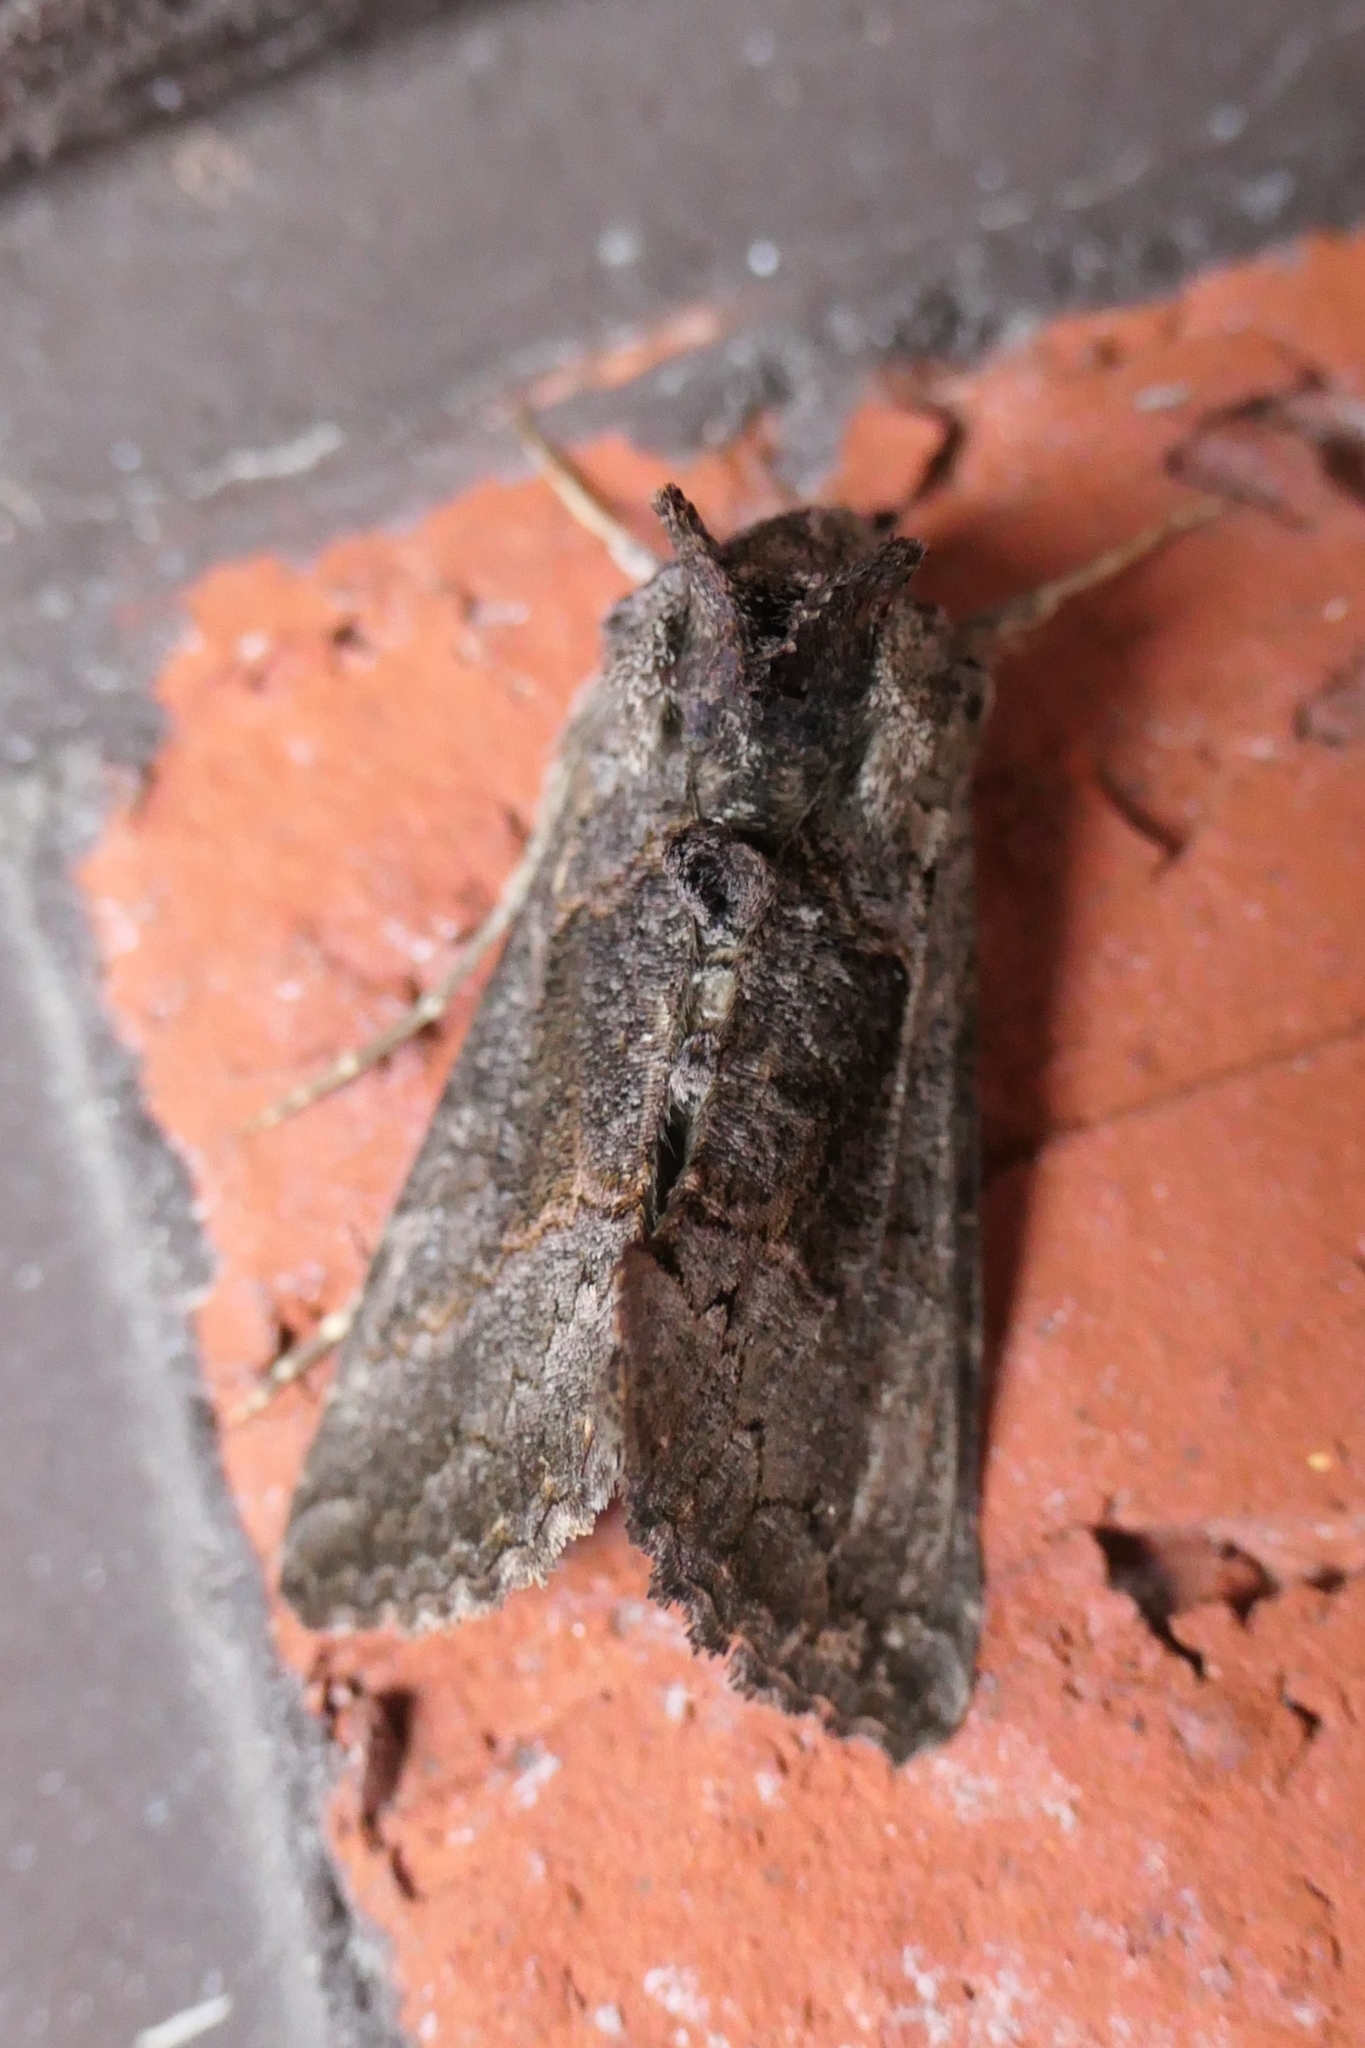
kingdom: Animalia
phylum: Arthropoda
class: Insecta
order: Lepidoptera
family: Noctuidae
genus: Ctenoplusia
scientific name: Ctenoplusia albostriata
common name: Moth
